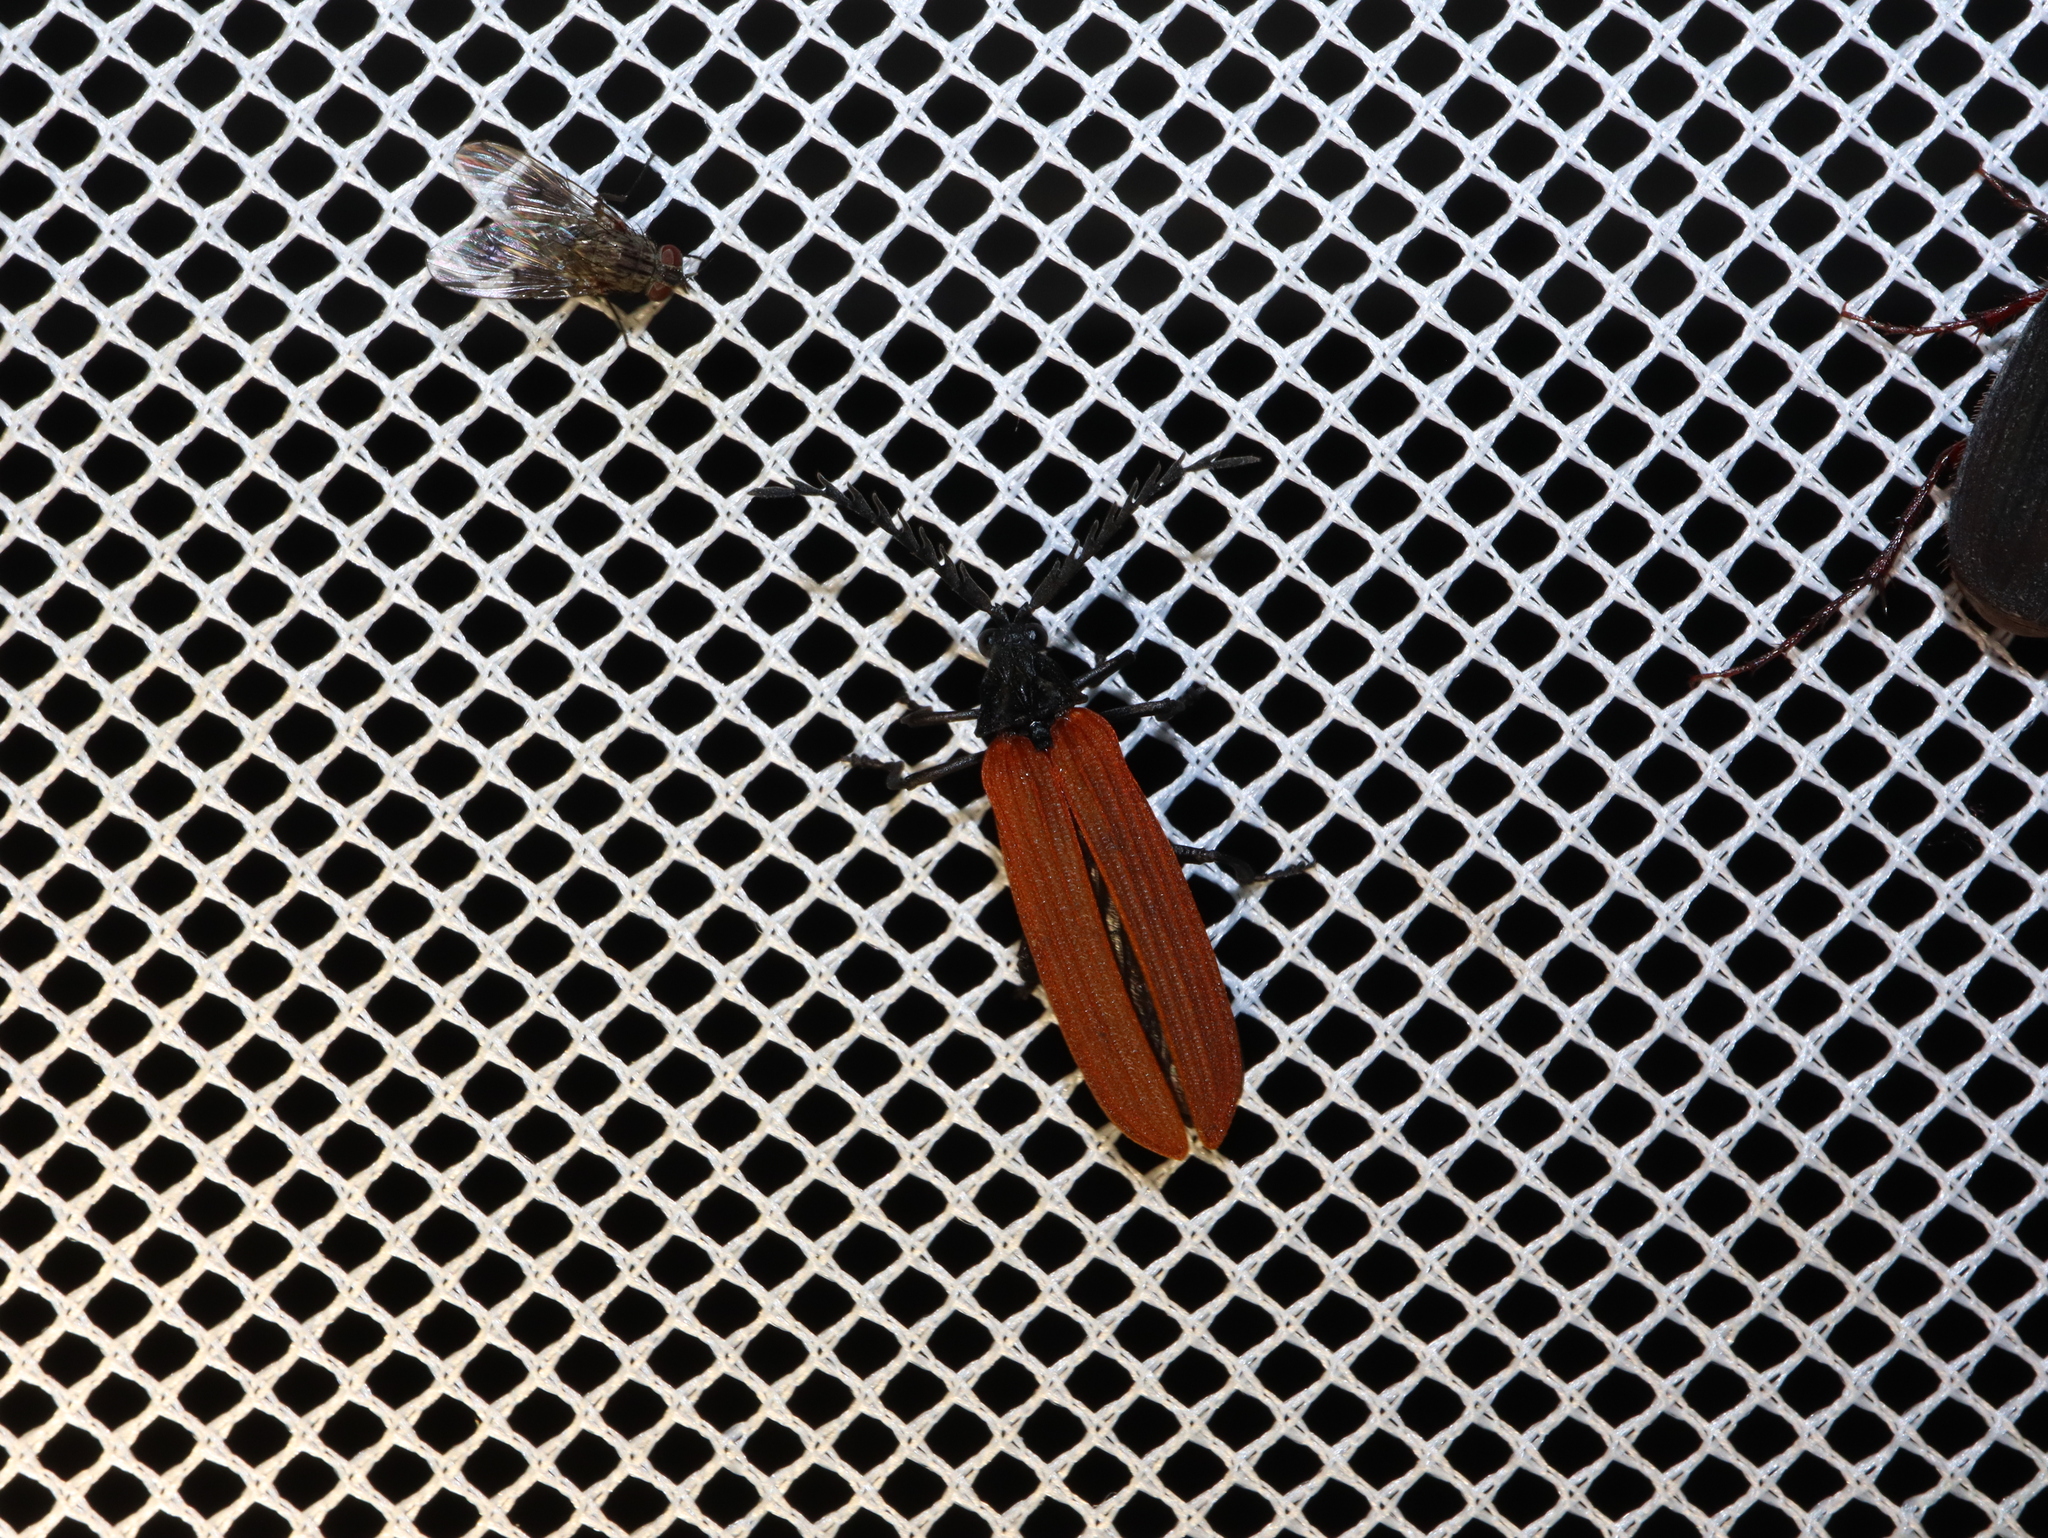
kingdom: Animalia
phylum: Arthropoda
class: Insecta
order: Coleoptera
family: Lycidae
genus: Porrostoma
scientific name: Porrostoma rhipidium
